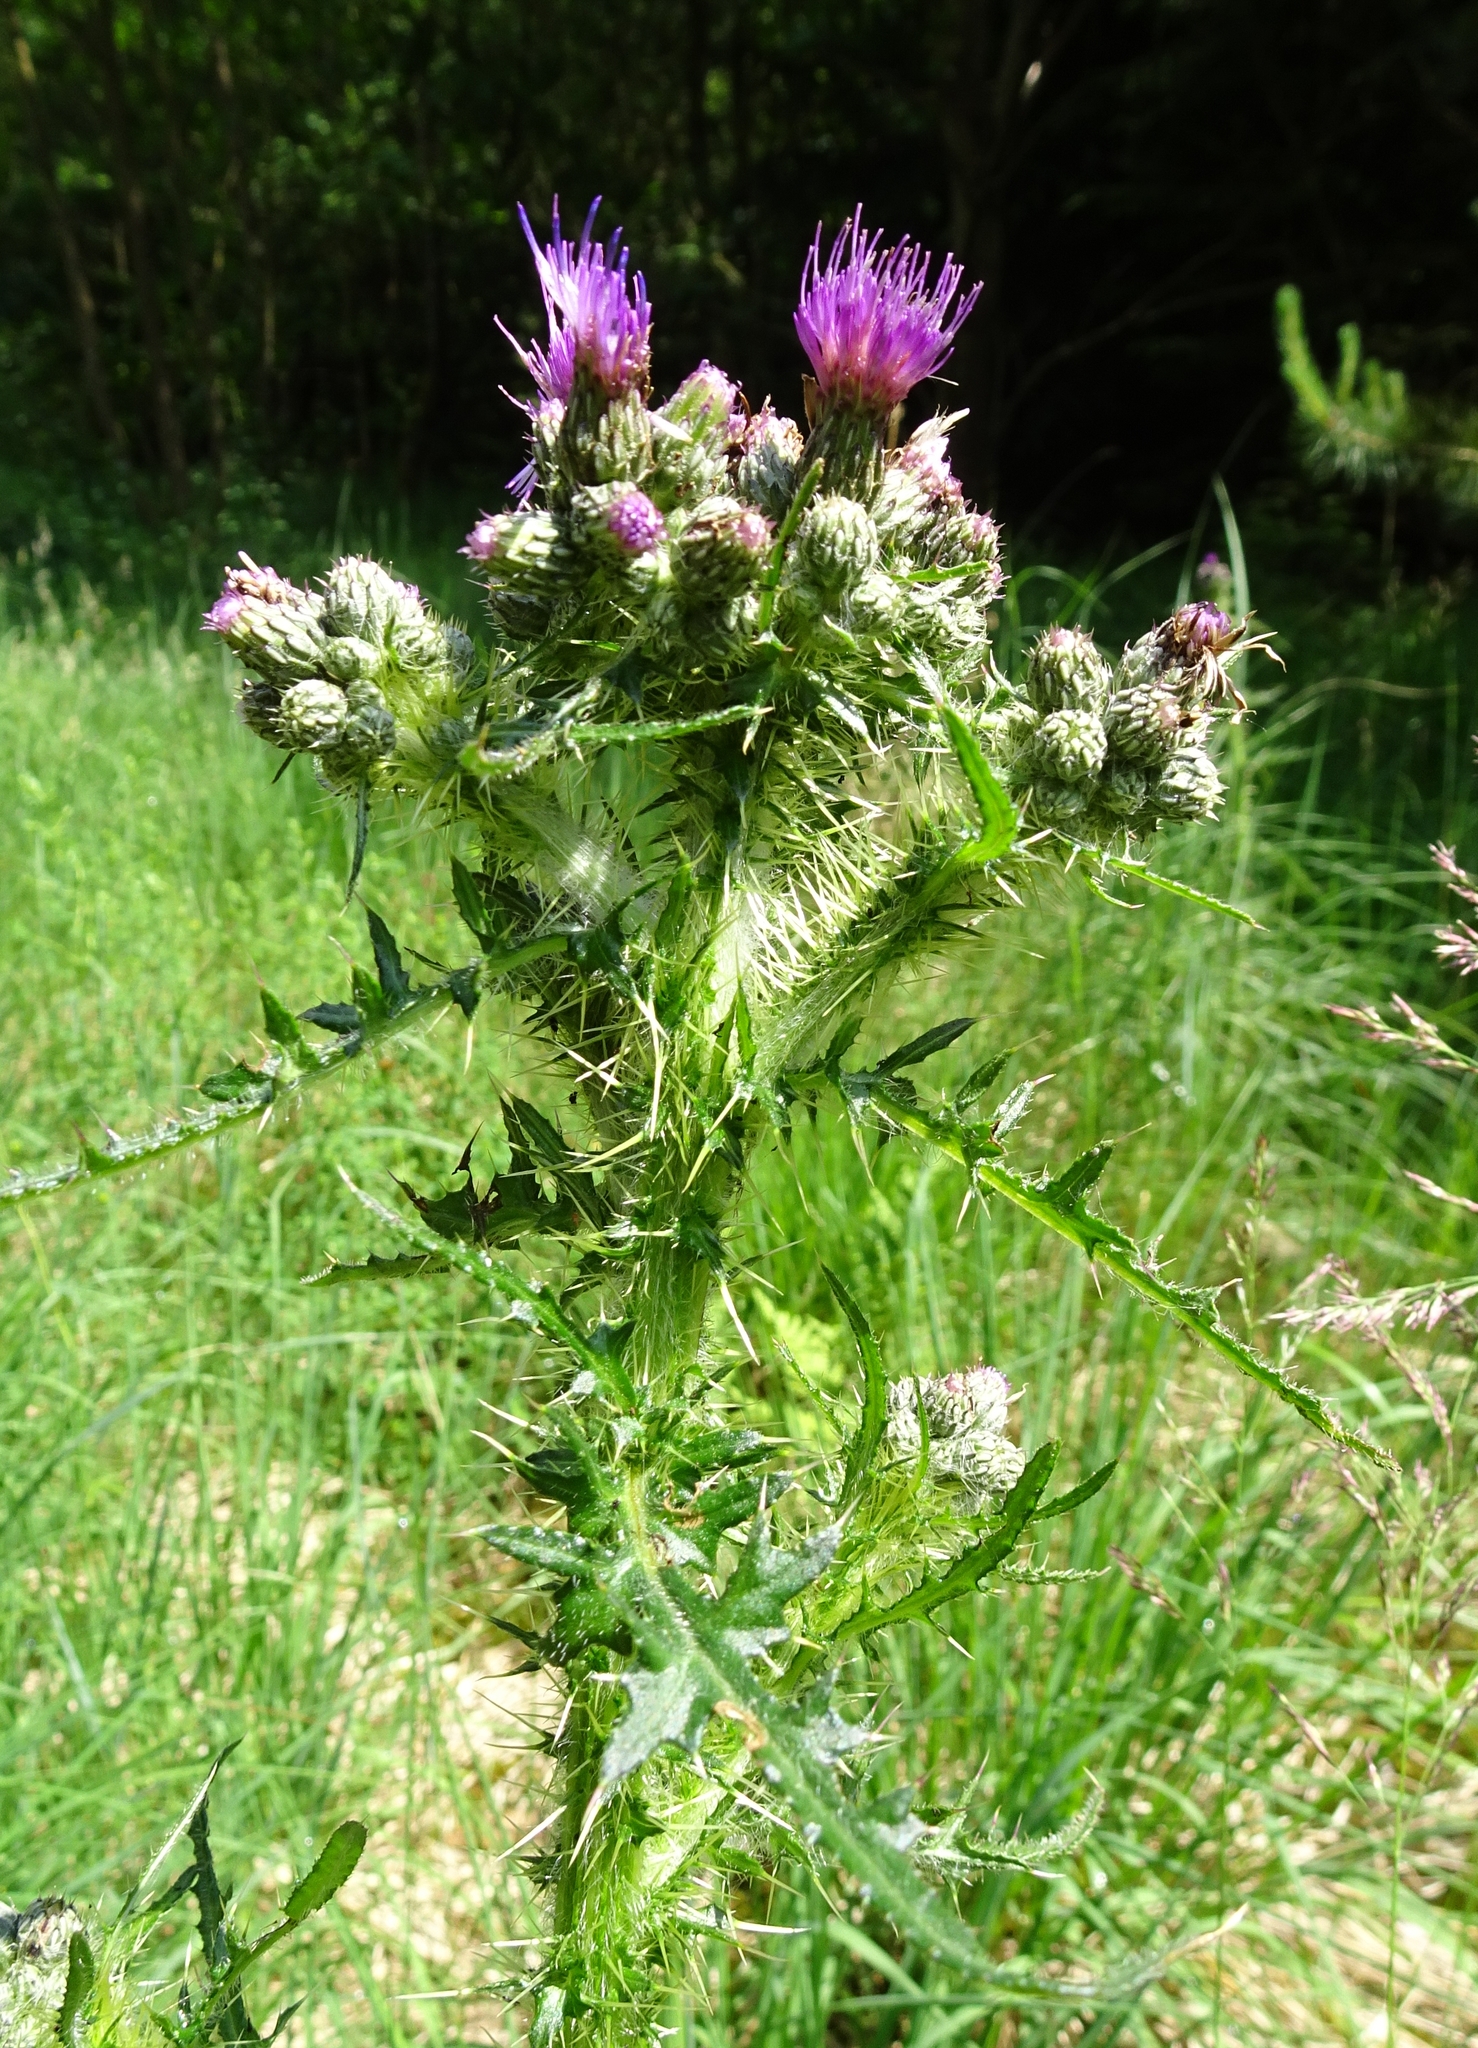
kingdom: Plantae
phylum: Tracheophyta
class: Magnoliopsida
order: Asterales
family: Asteraceae
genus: Cirsium
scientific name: Cirsium palustre
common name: Marsh thistle
